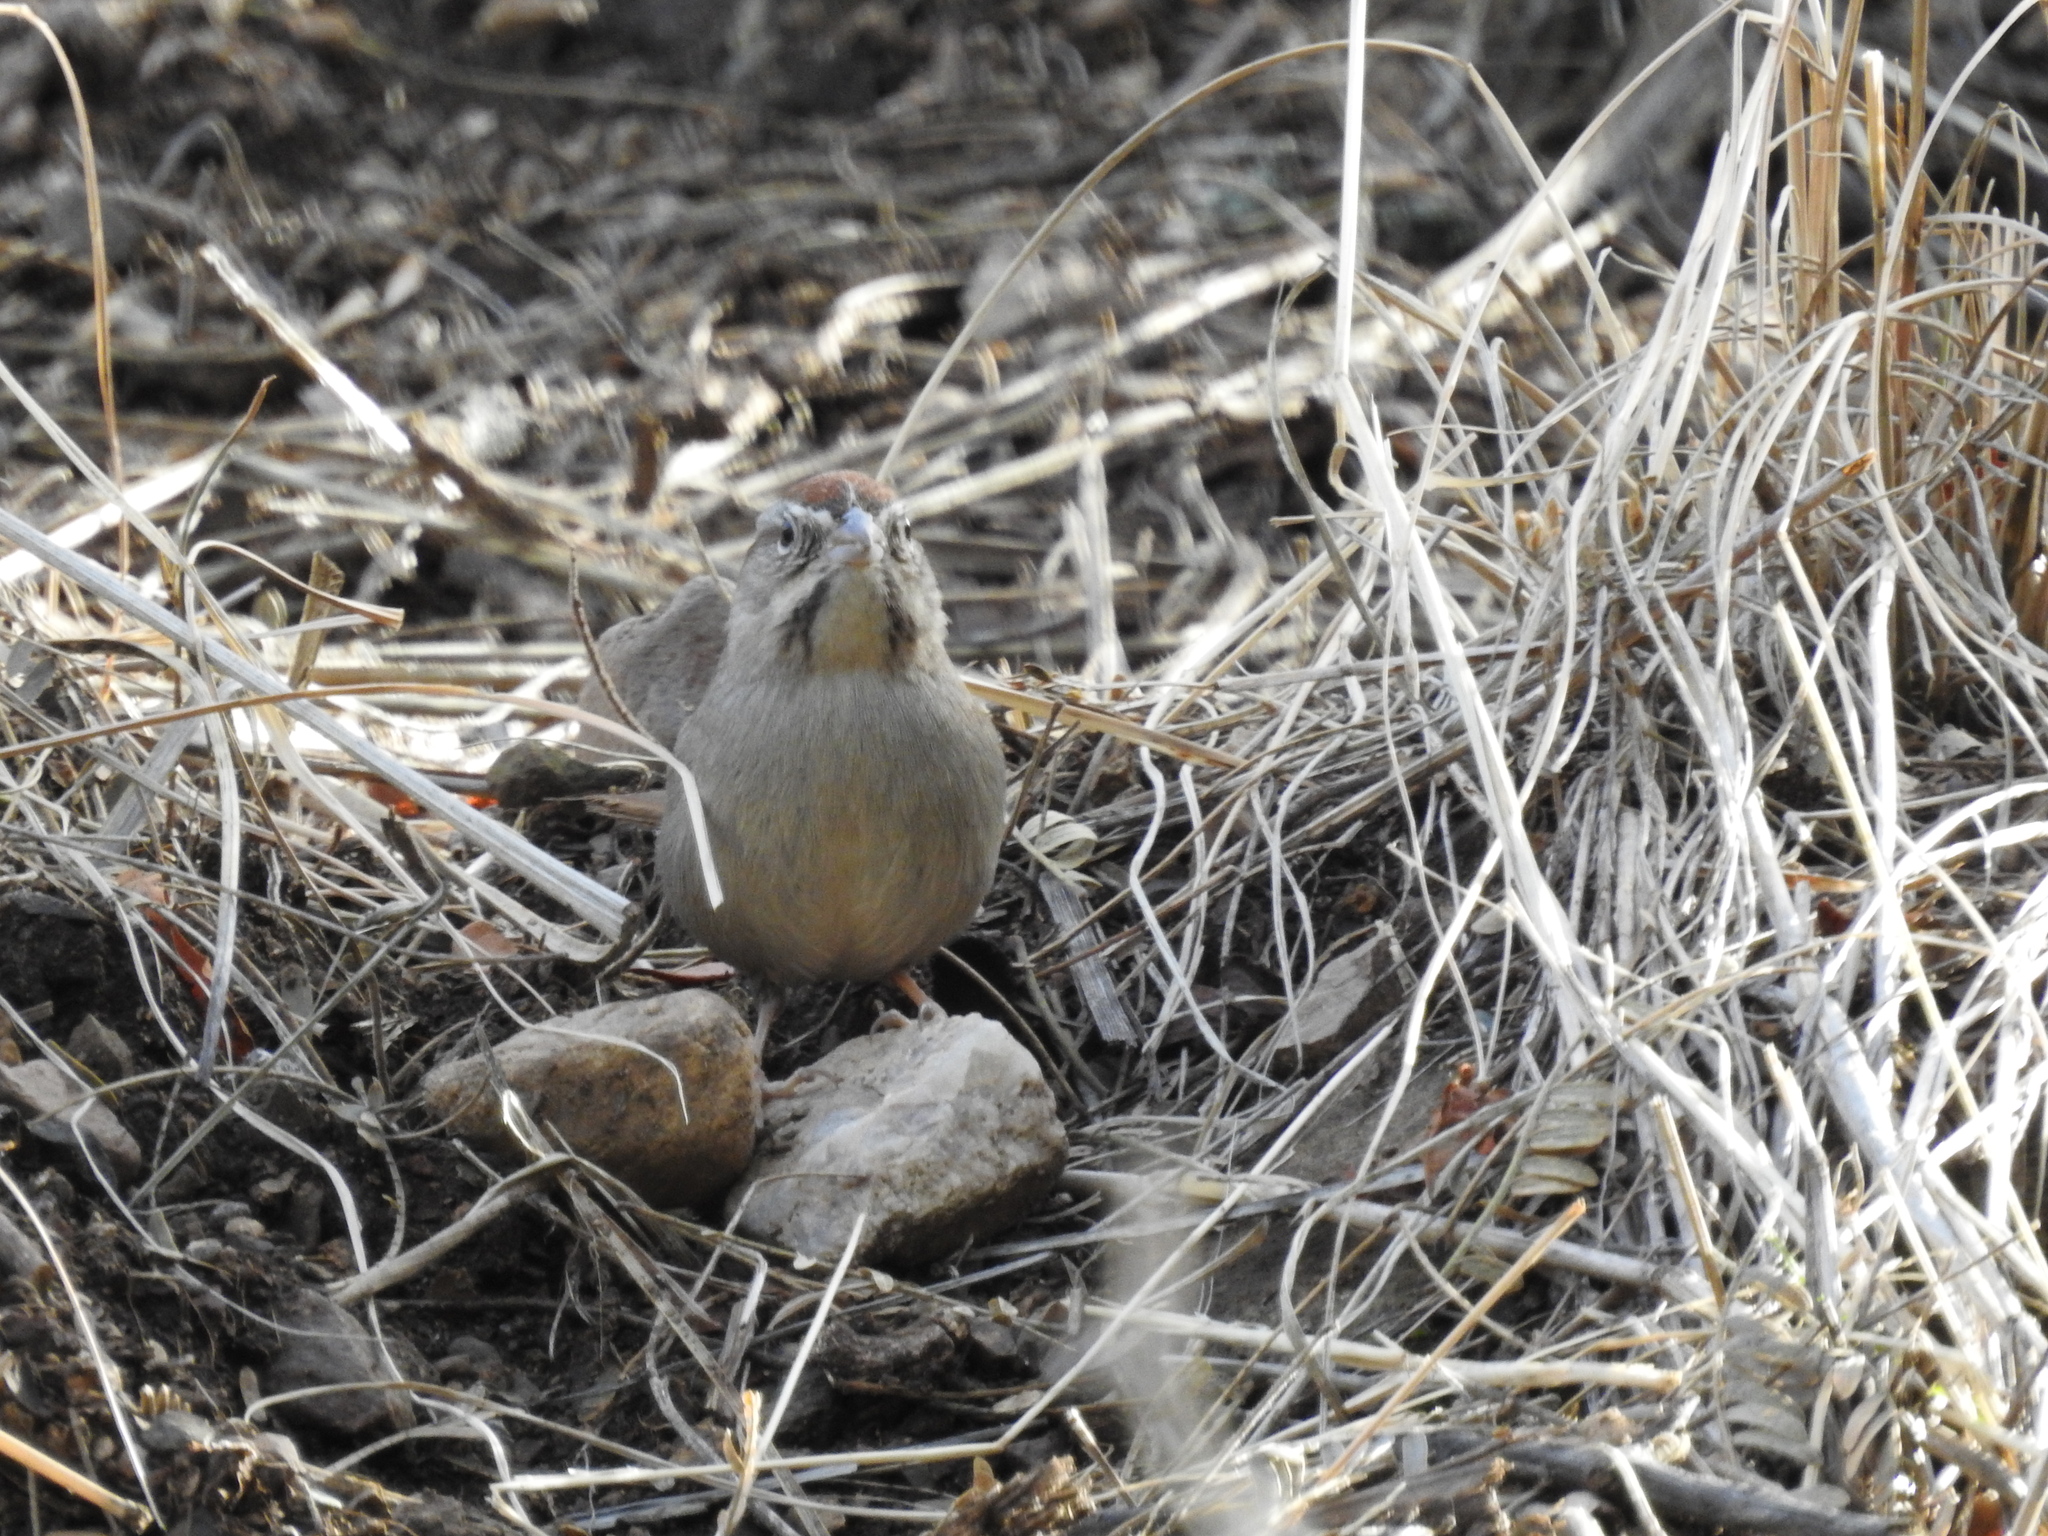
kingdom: Animalia
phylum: Chordata
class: Aves
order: Passeriformes
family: Passerellidae
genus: Aimophila
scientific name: Aimophila ruficeps
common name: Rufous-crowned sparrow
